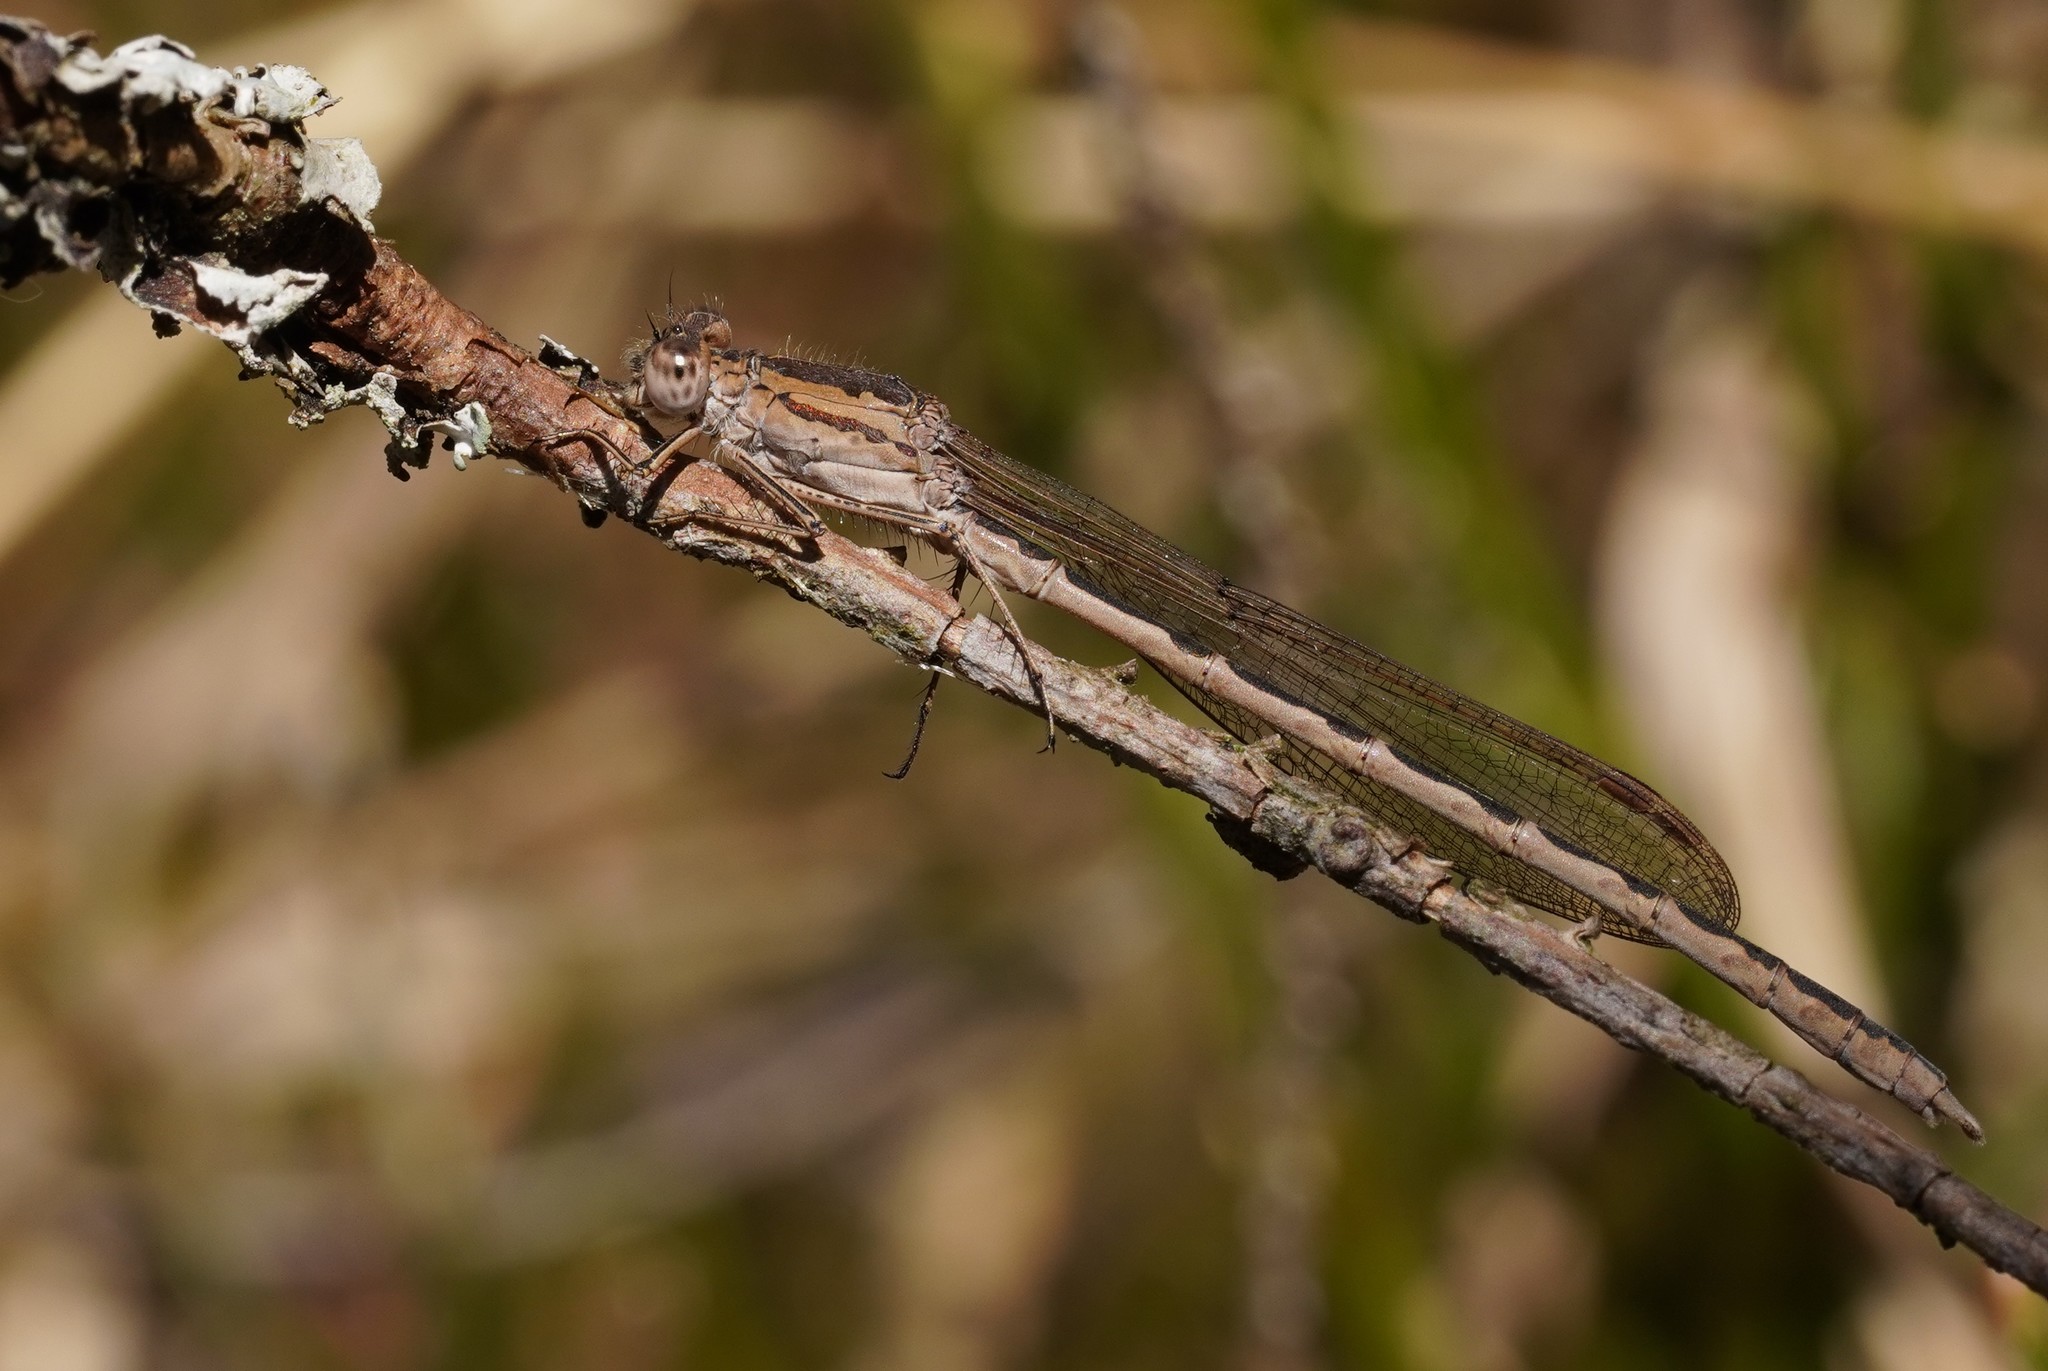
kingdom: Animalia
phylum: Arthropoda
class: Insecta
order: Odonata
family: Lestidae
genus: Sympecma
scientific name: Sympecma paedisca
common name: Siberian winter damsel
